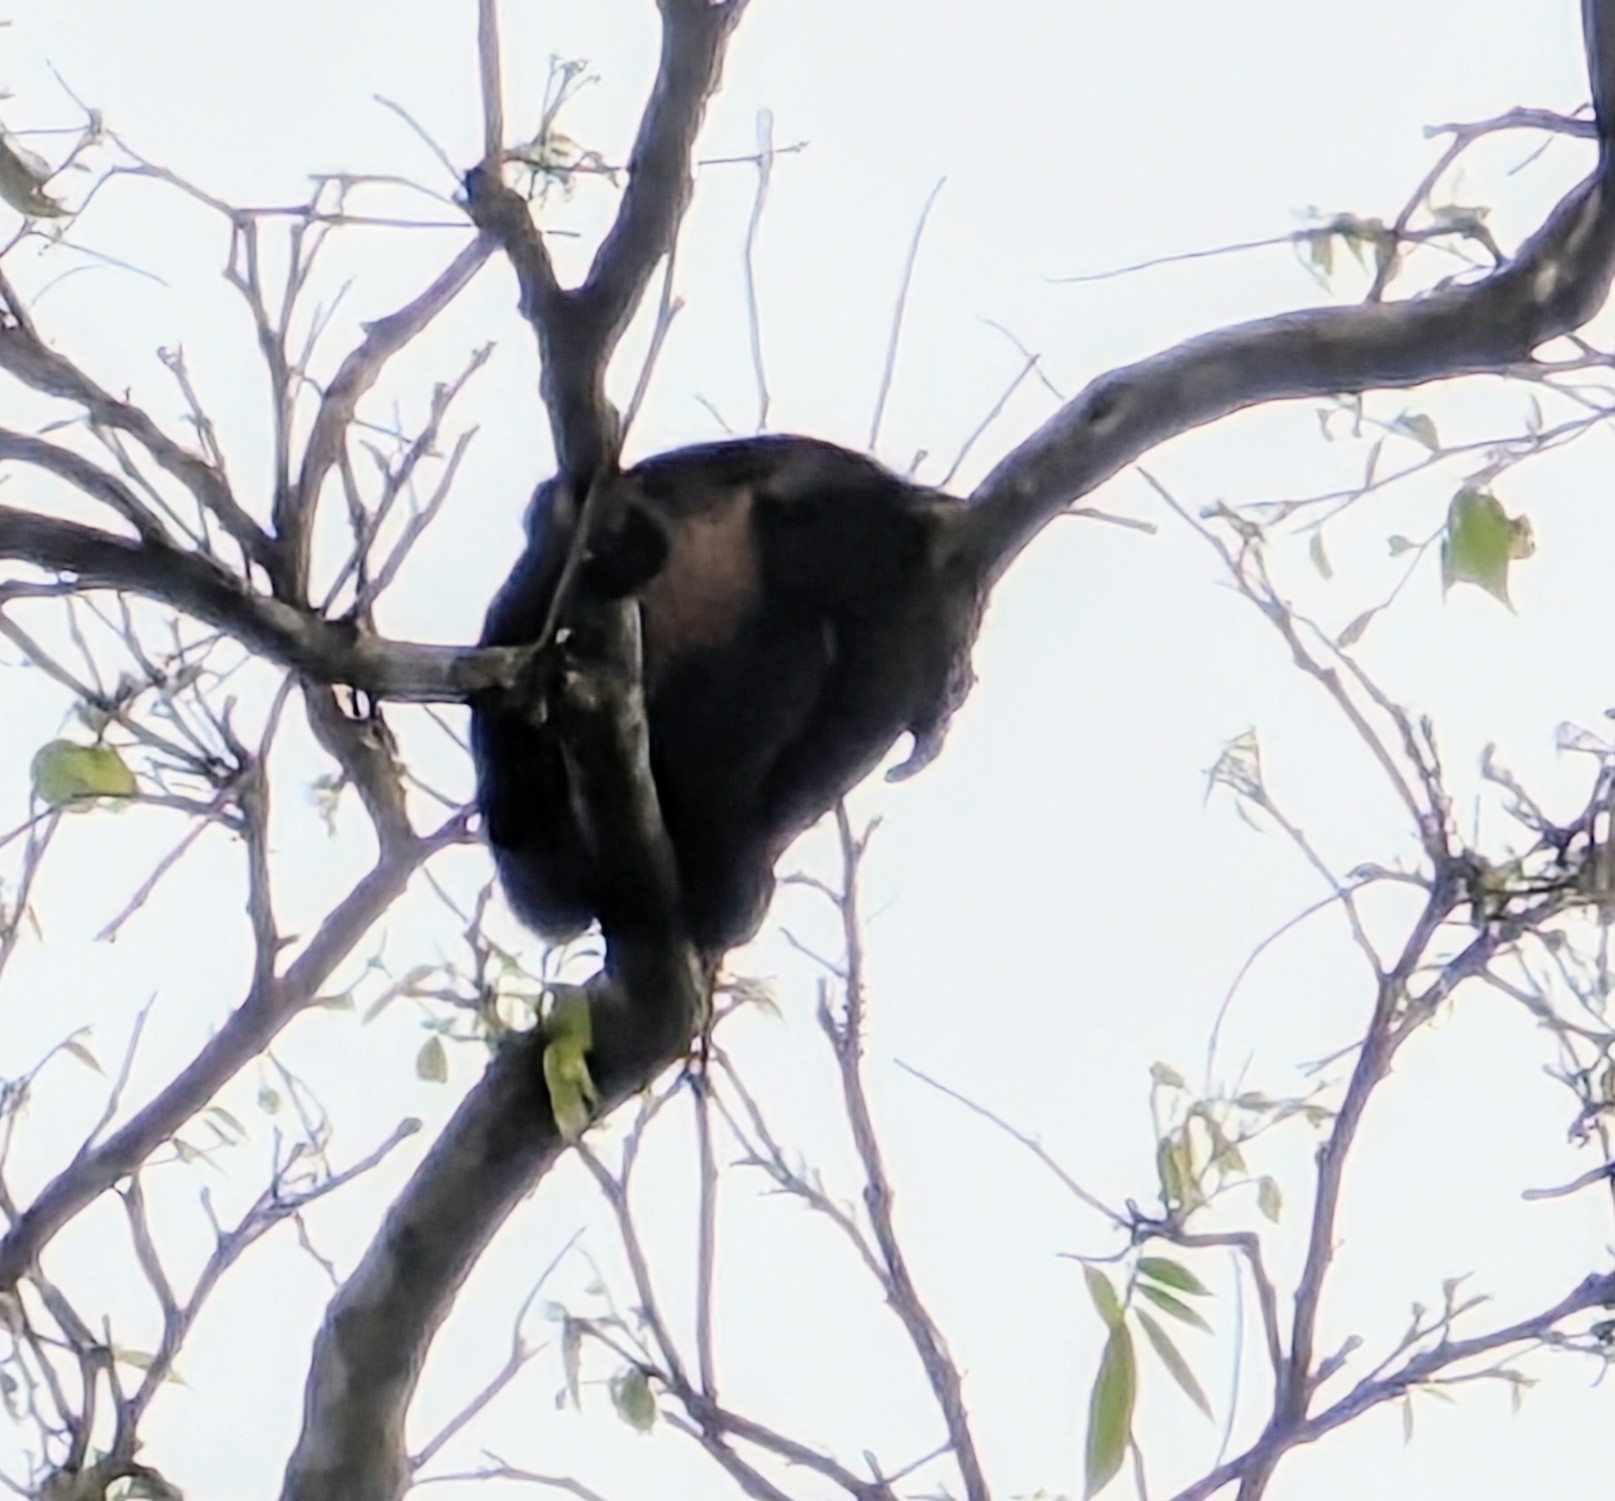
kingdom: Animalia
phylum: Chordata
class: Mammalia
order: Primates
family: Atelidae
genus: Alouatta
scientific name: Alouatta palliata
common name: Mantled howler
